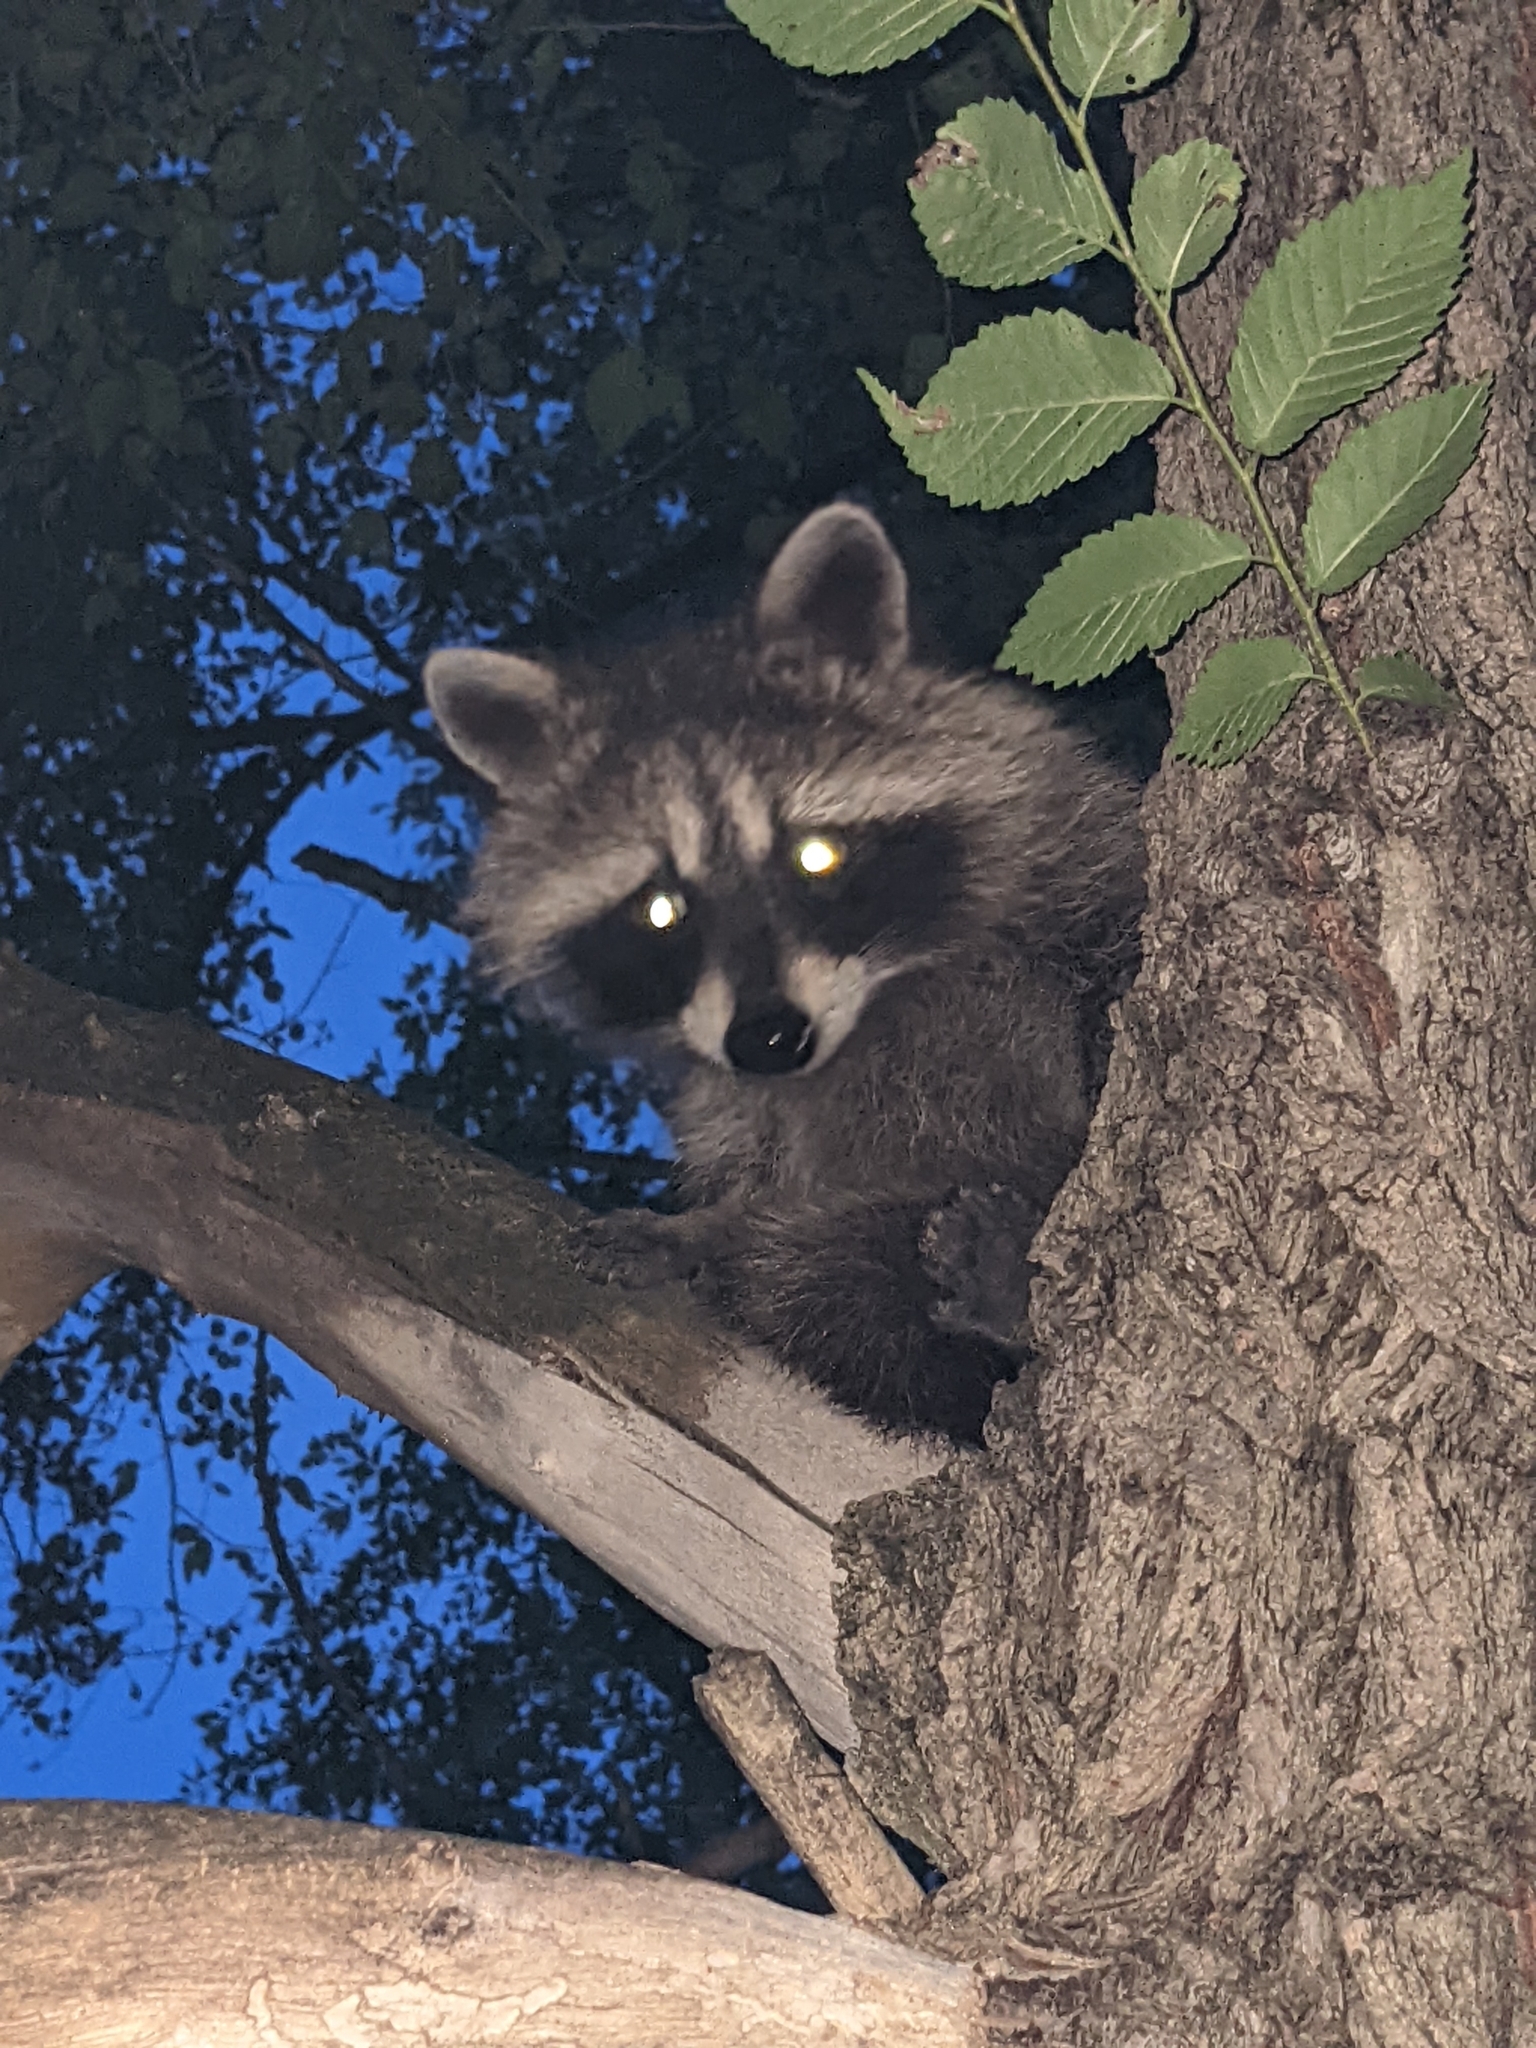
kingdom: Animalia
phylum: Chordata
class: Mammalia
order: Carnivora
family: Procyonidae
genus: Procyon
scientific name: Procyon lotor
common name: Raccoon
